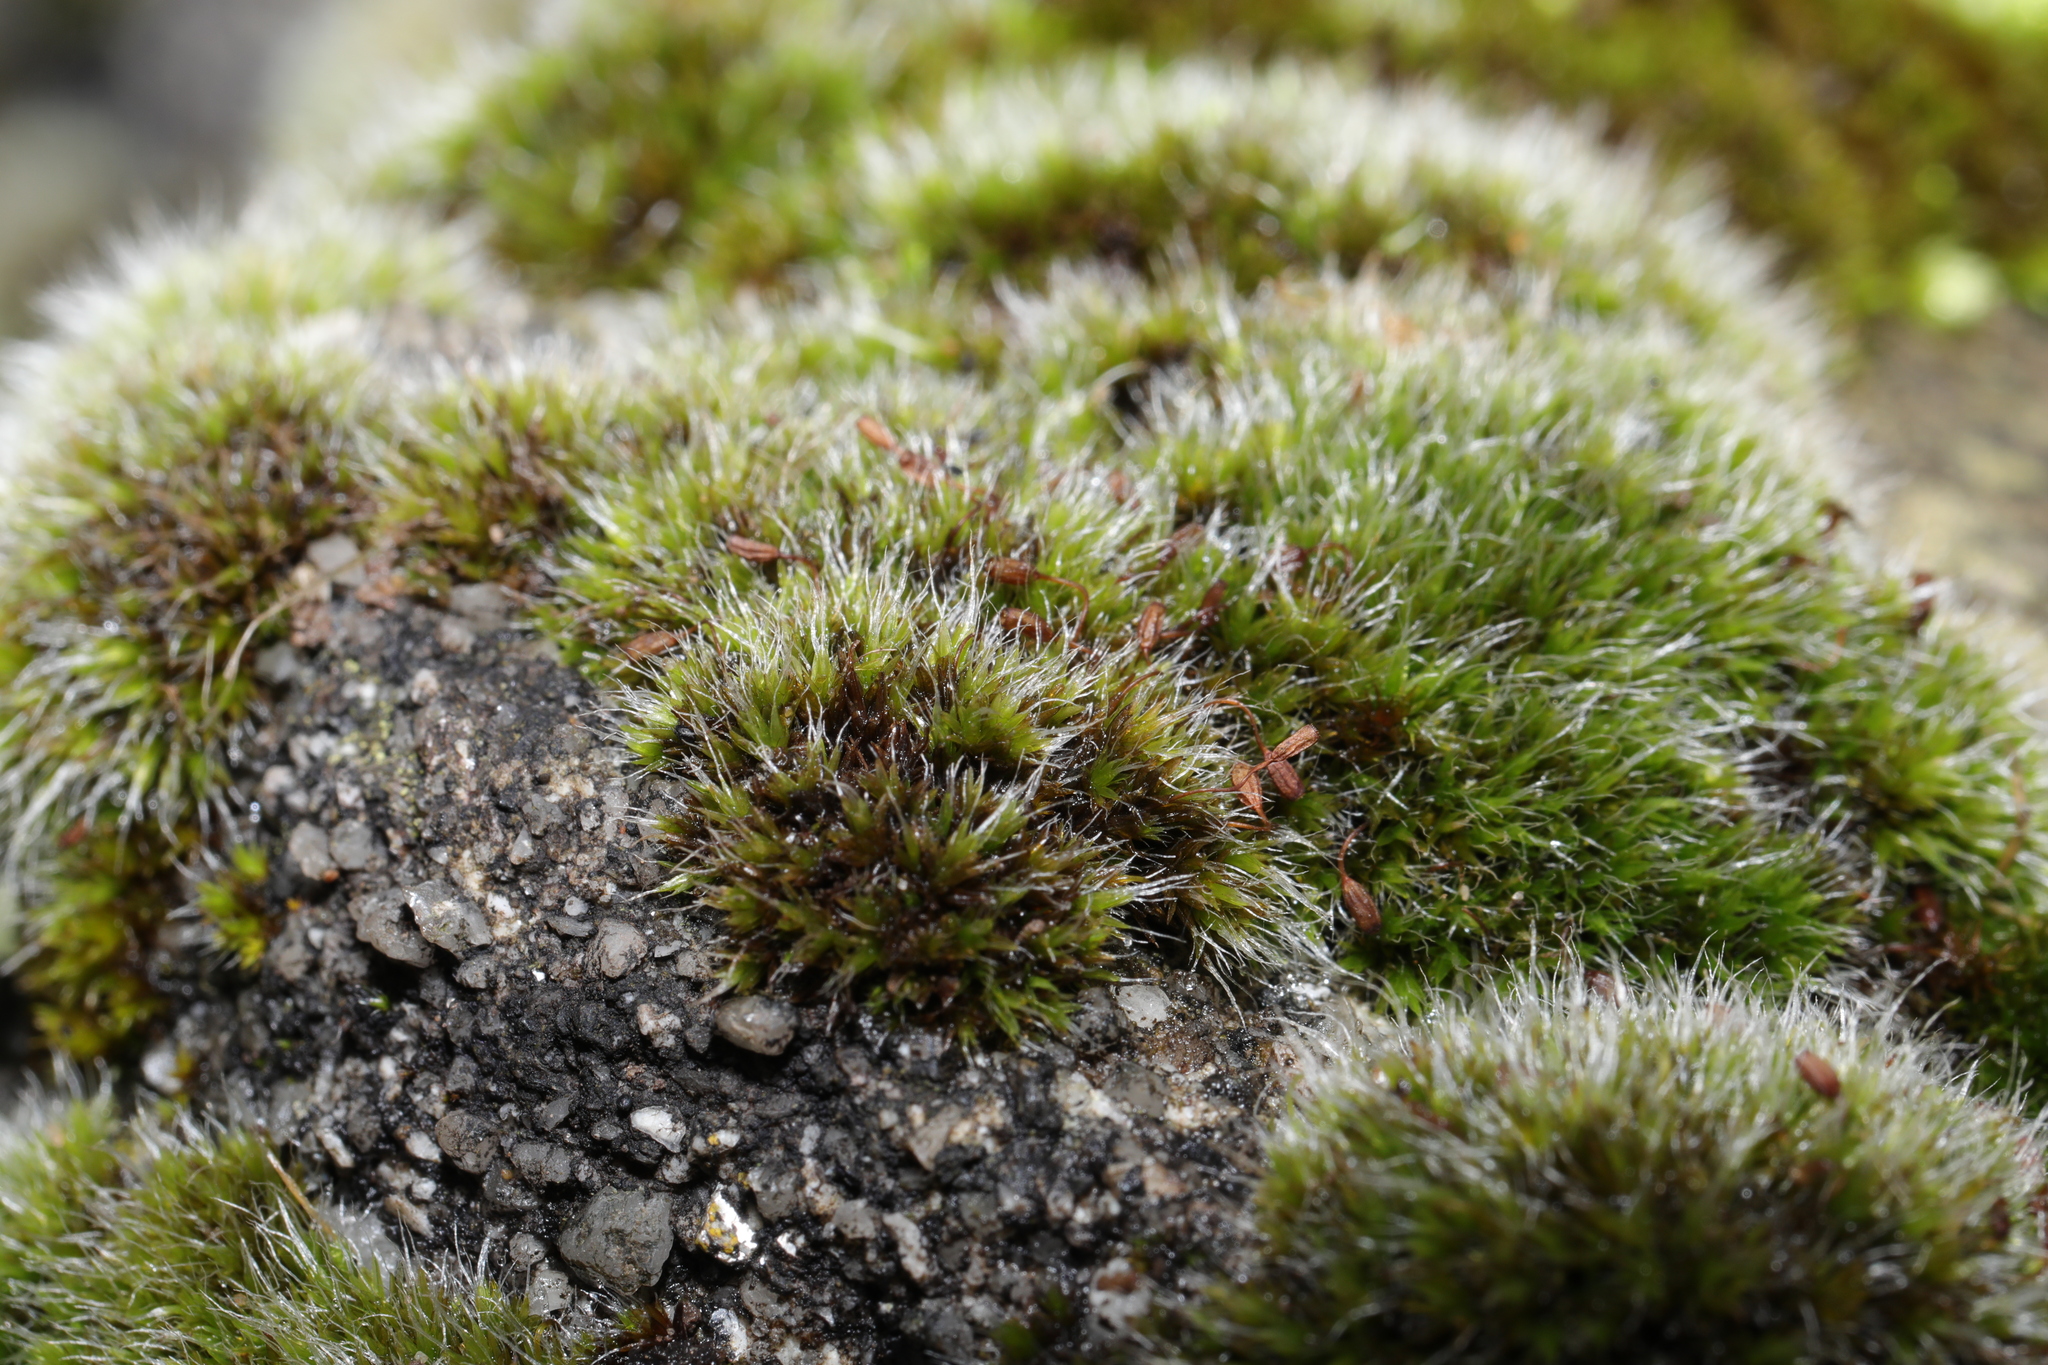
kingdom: Plantae
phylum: Bryophyta
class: Bryopsida
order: Grimmiales
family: Grimmiaceae
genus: Grimmia
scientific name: Grimmia pulvinata
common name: Grey-cushioned grimmia
